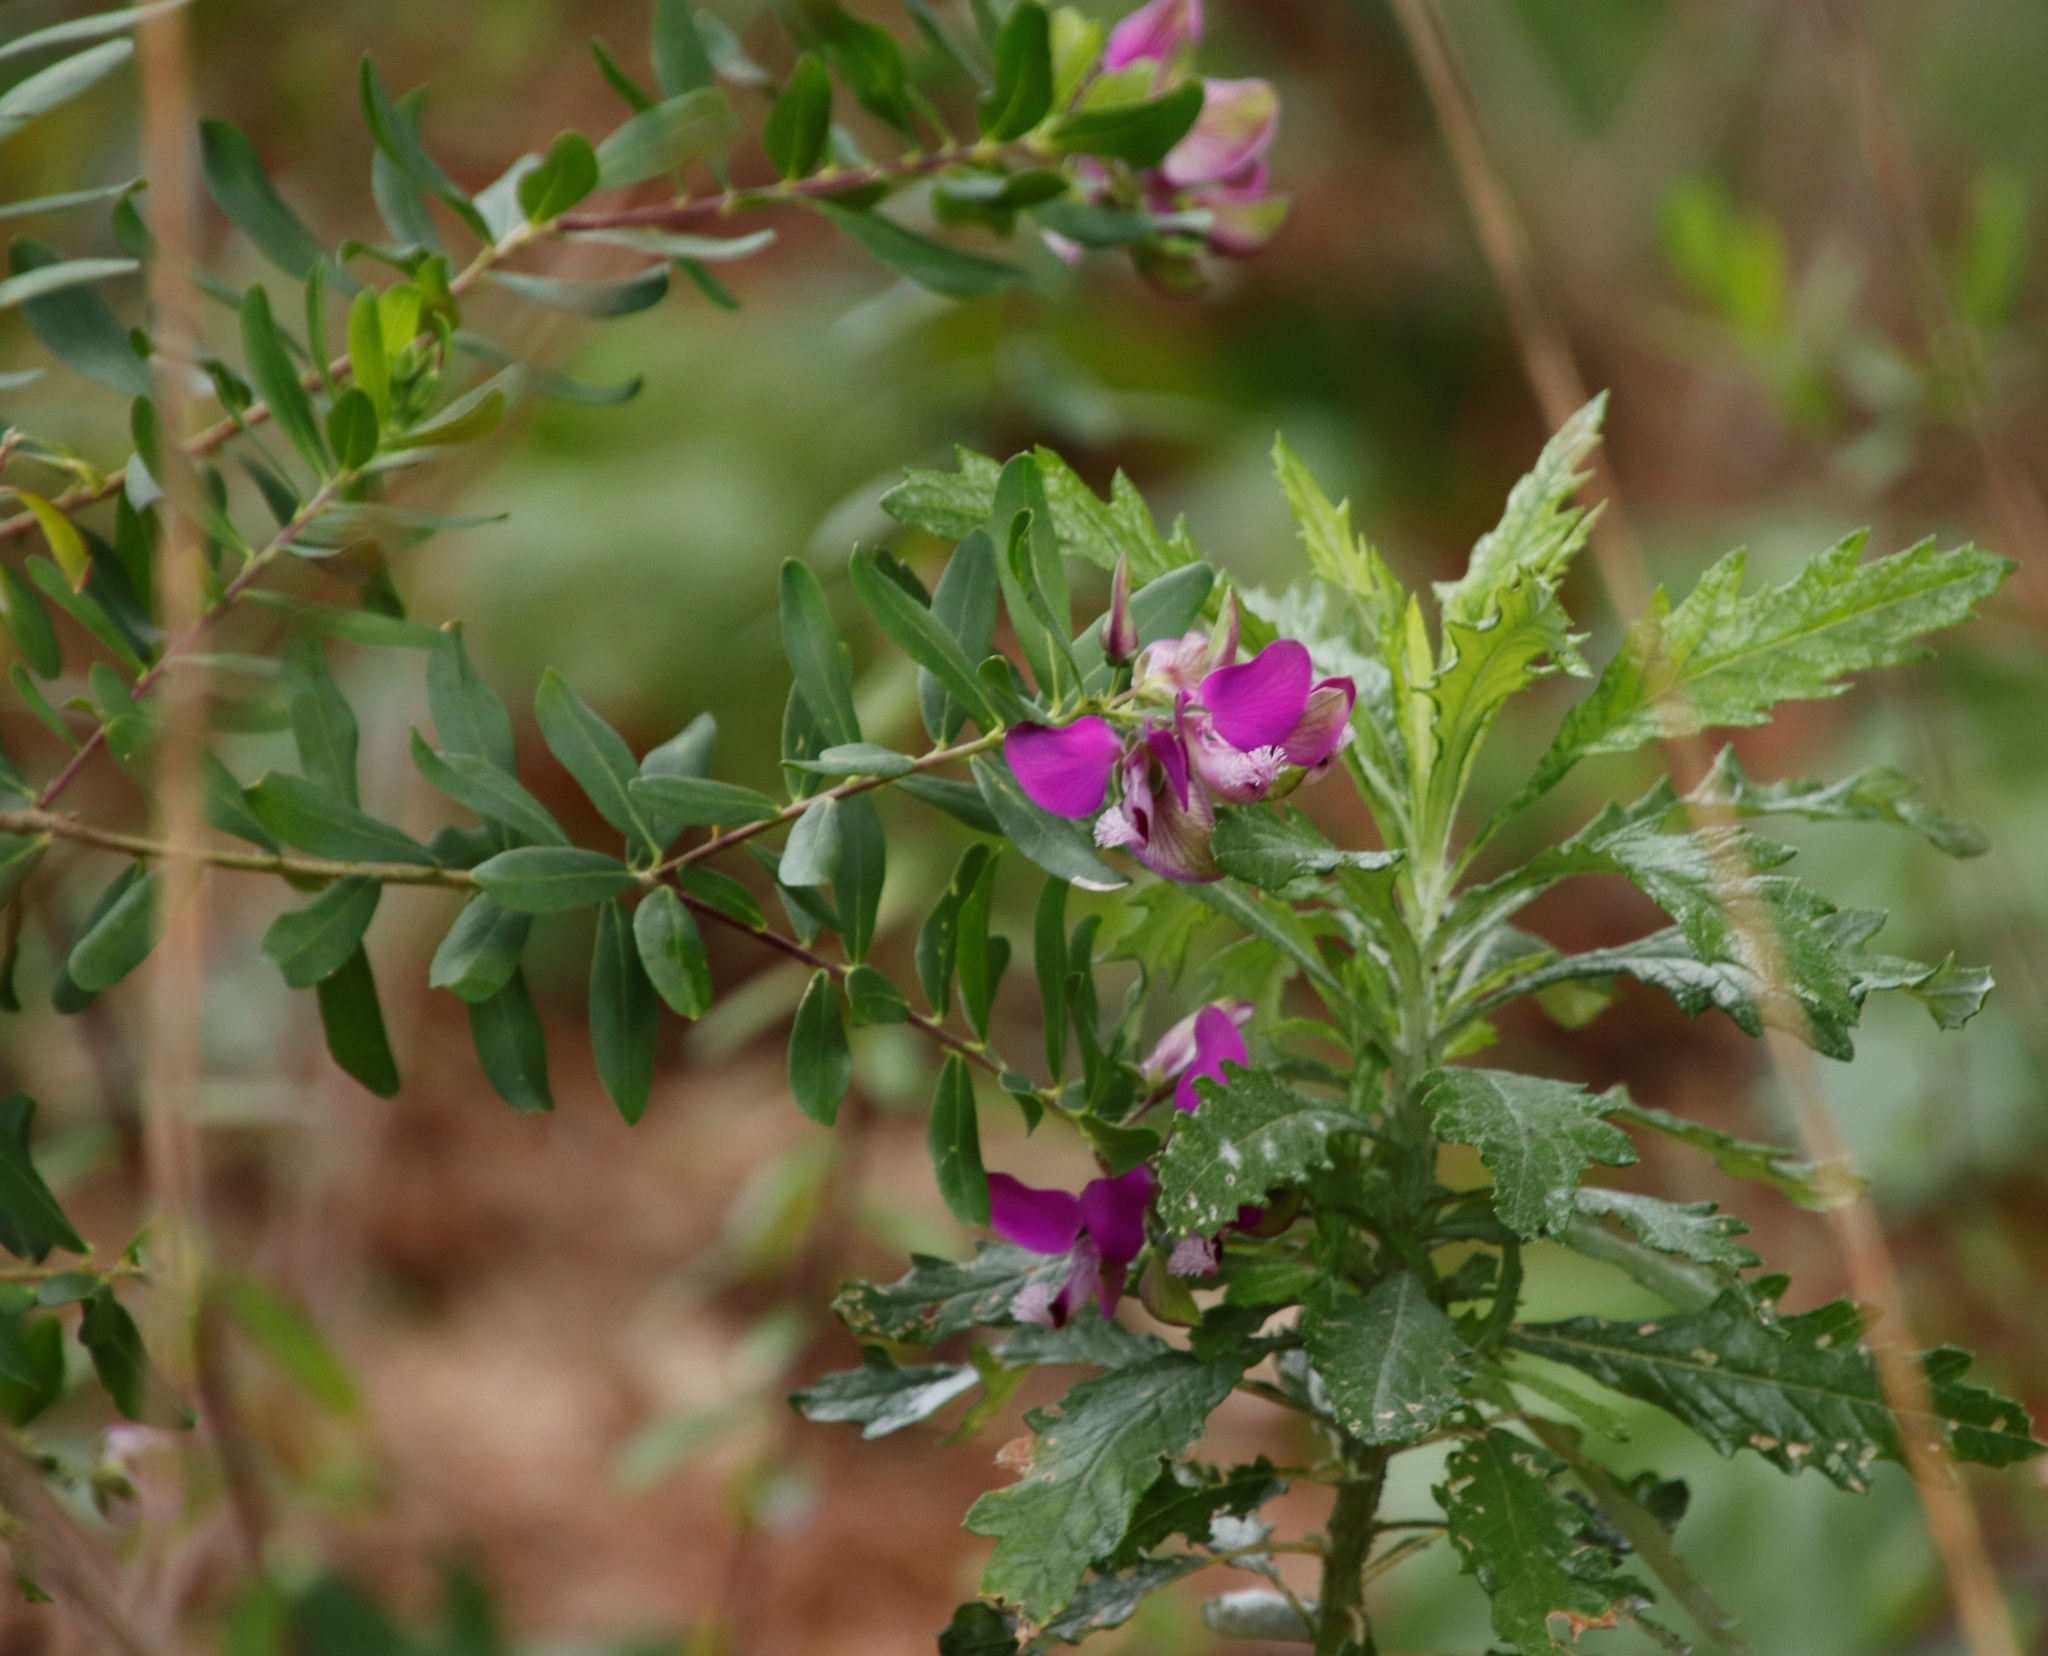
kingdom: Plantae
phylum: Tracheophyta
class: Magnoliopsida
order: Fabales
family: Polygalaceae
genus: Polygala
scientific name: Polygala myrtifolia
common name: Myrtle-leaf milkwort
